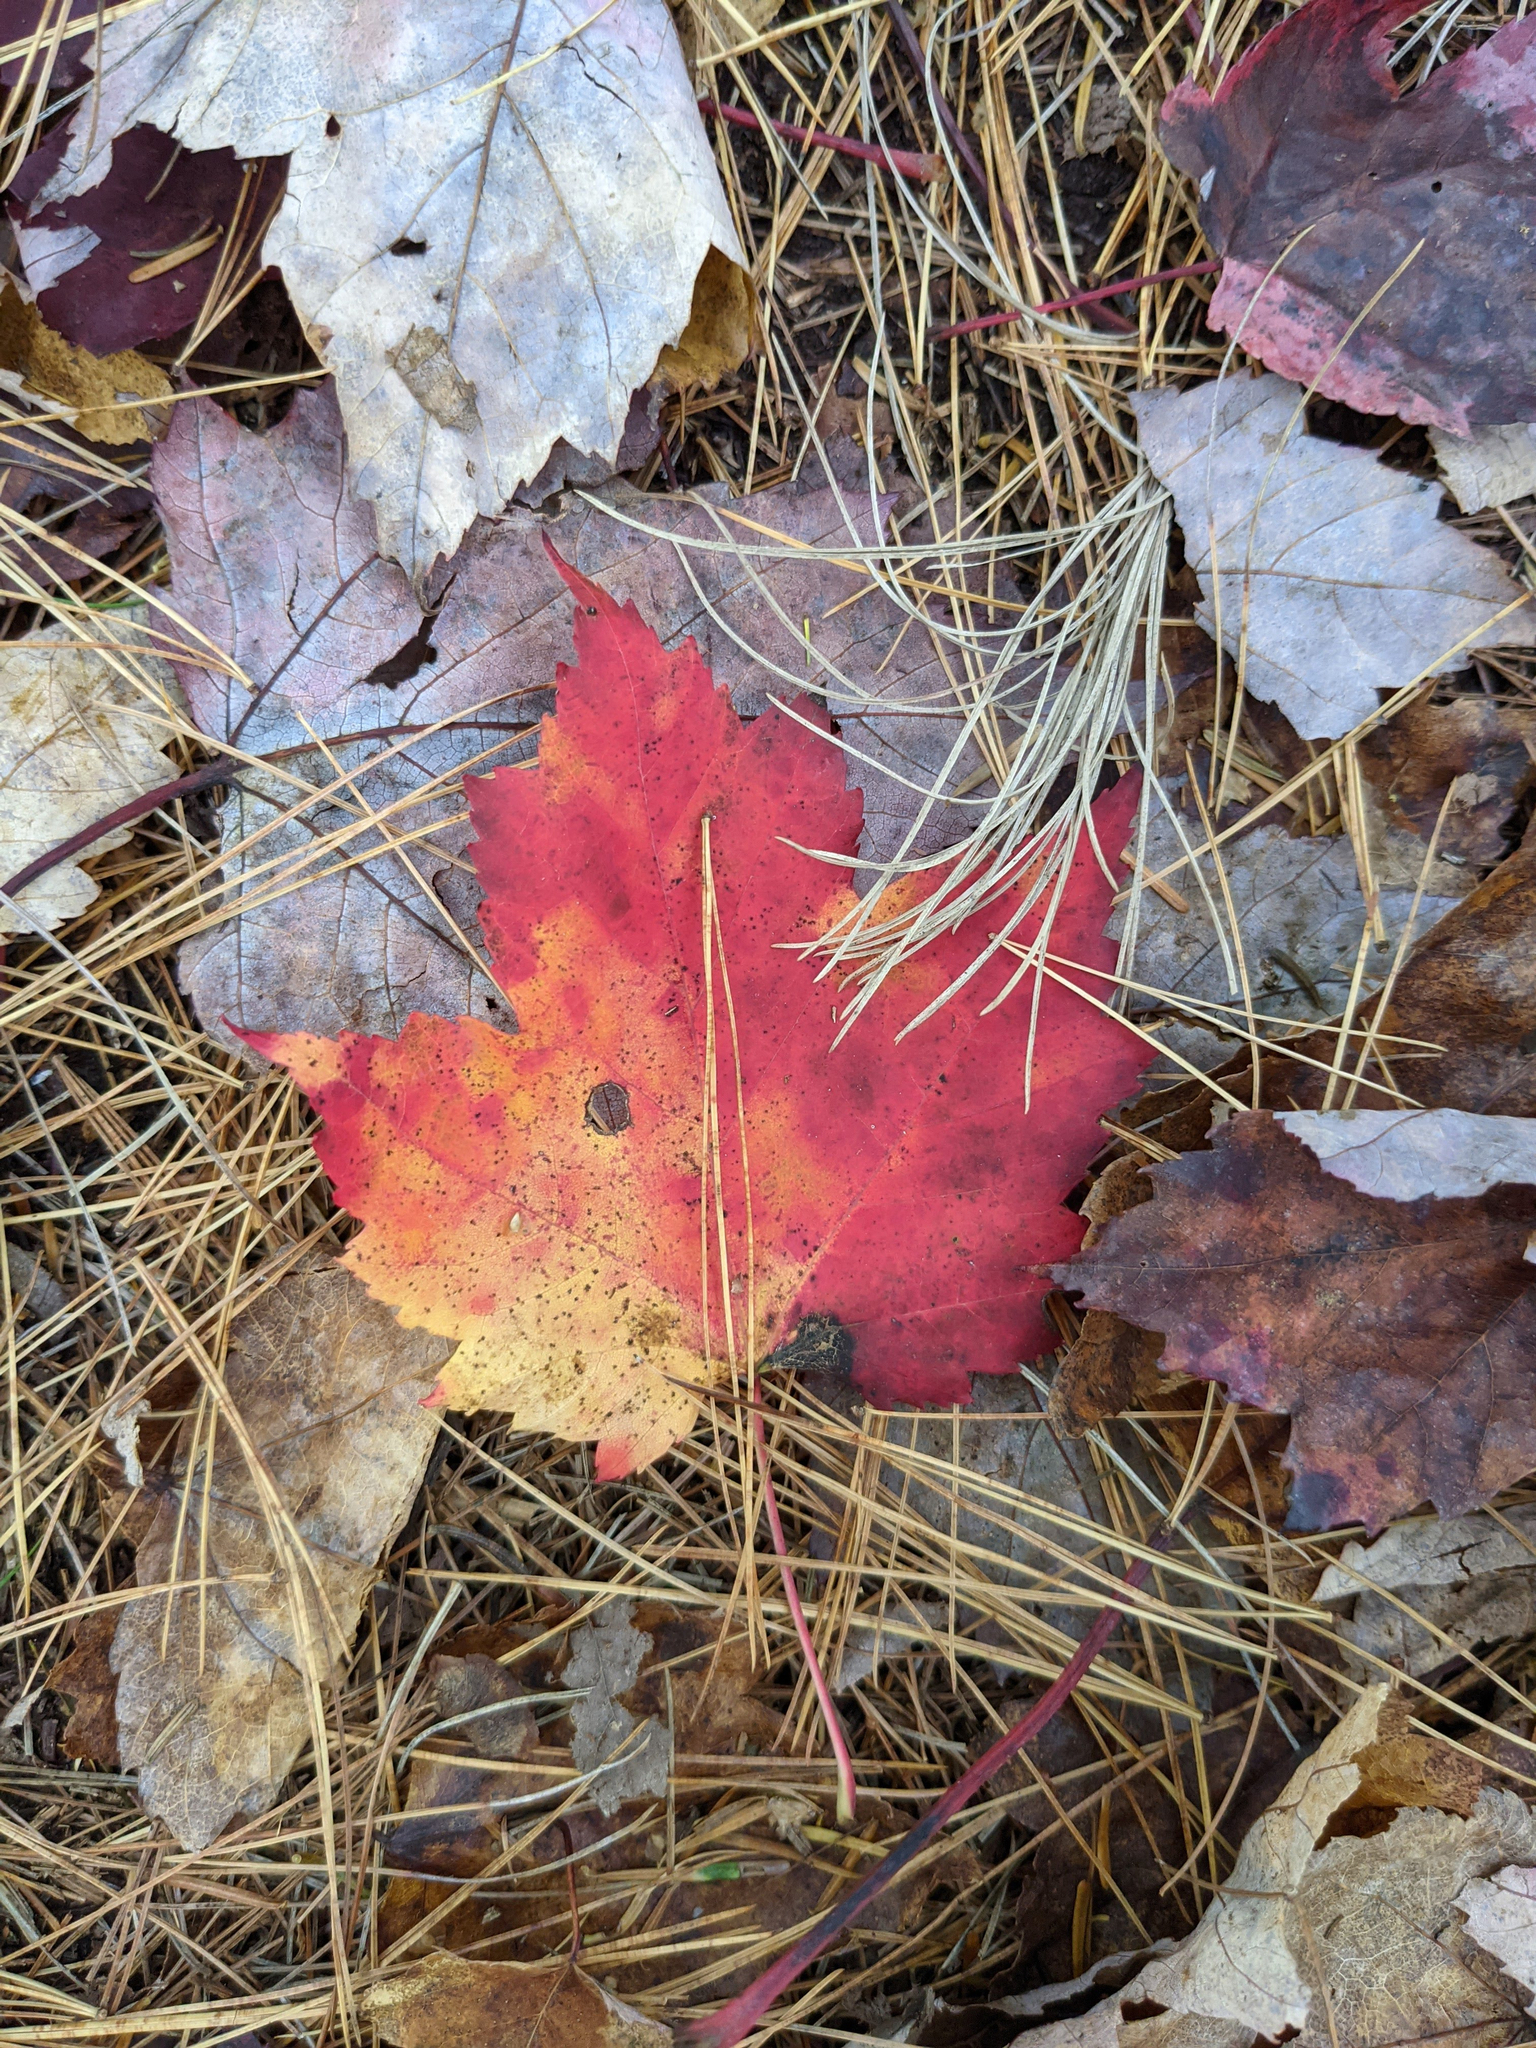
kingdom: Plantae
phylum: Tracheophyta
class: Magnoliopsida
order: Sapindales
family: Sapindaceae
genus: Acer
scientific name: Acer rubrum
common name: Red maple
